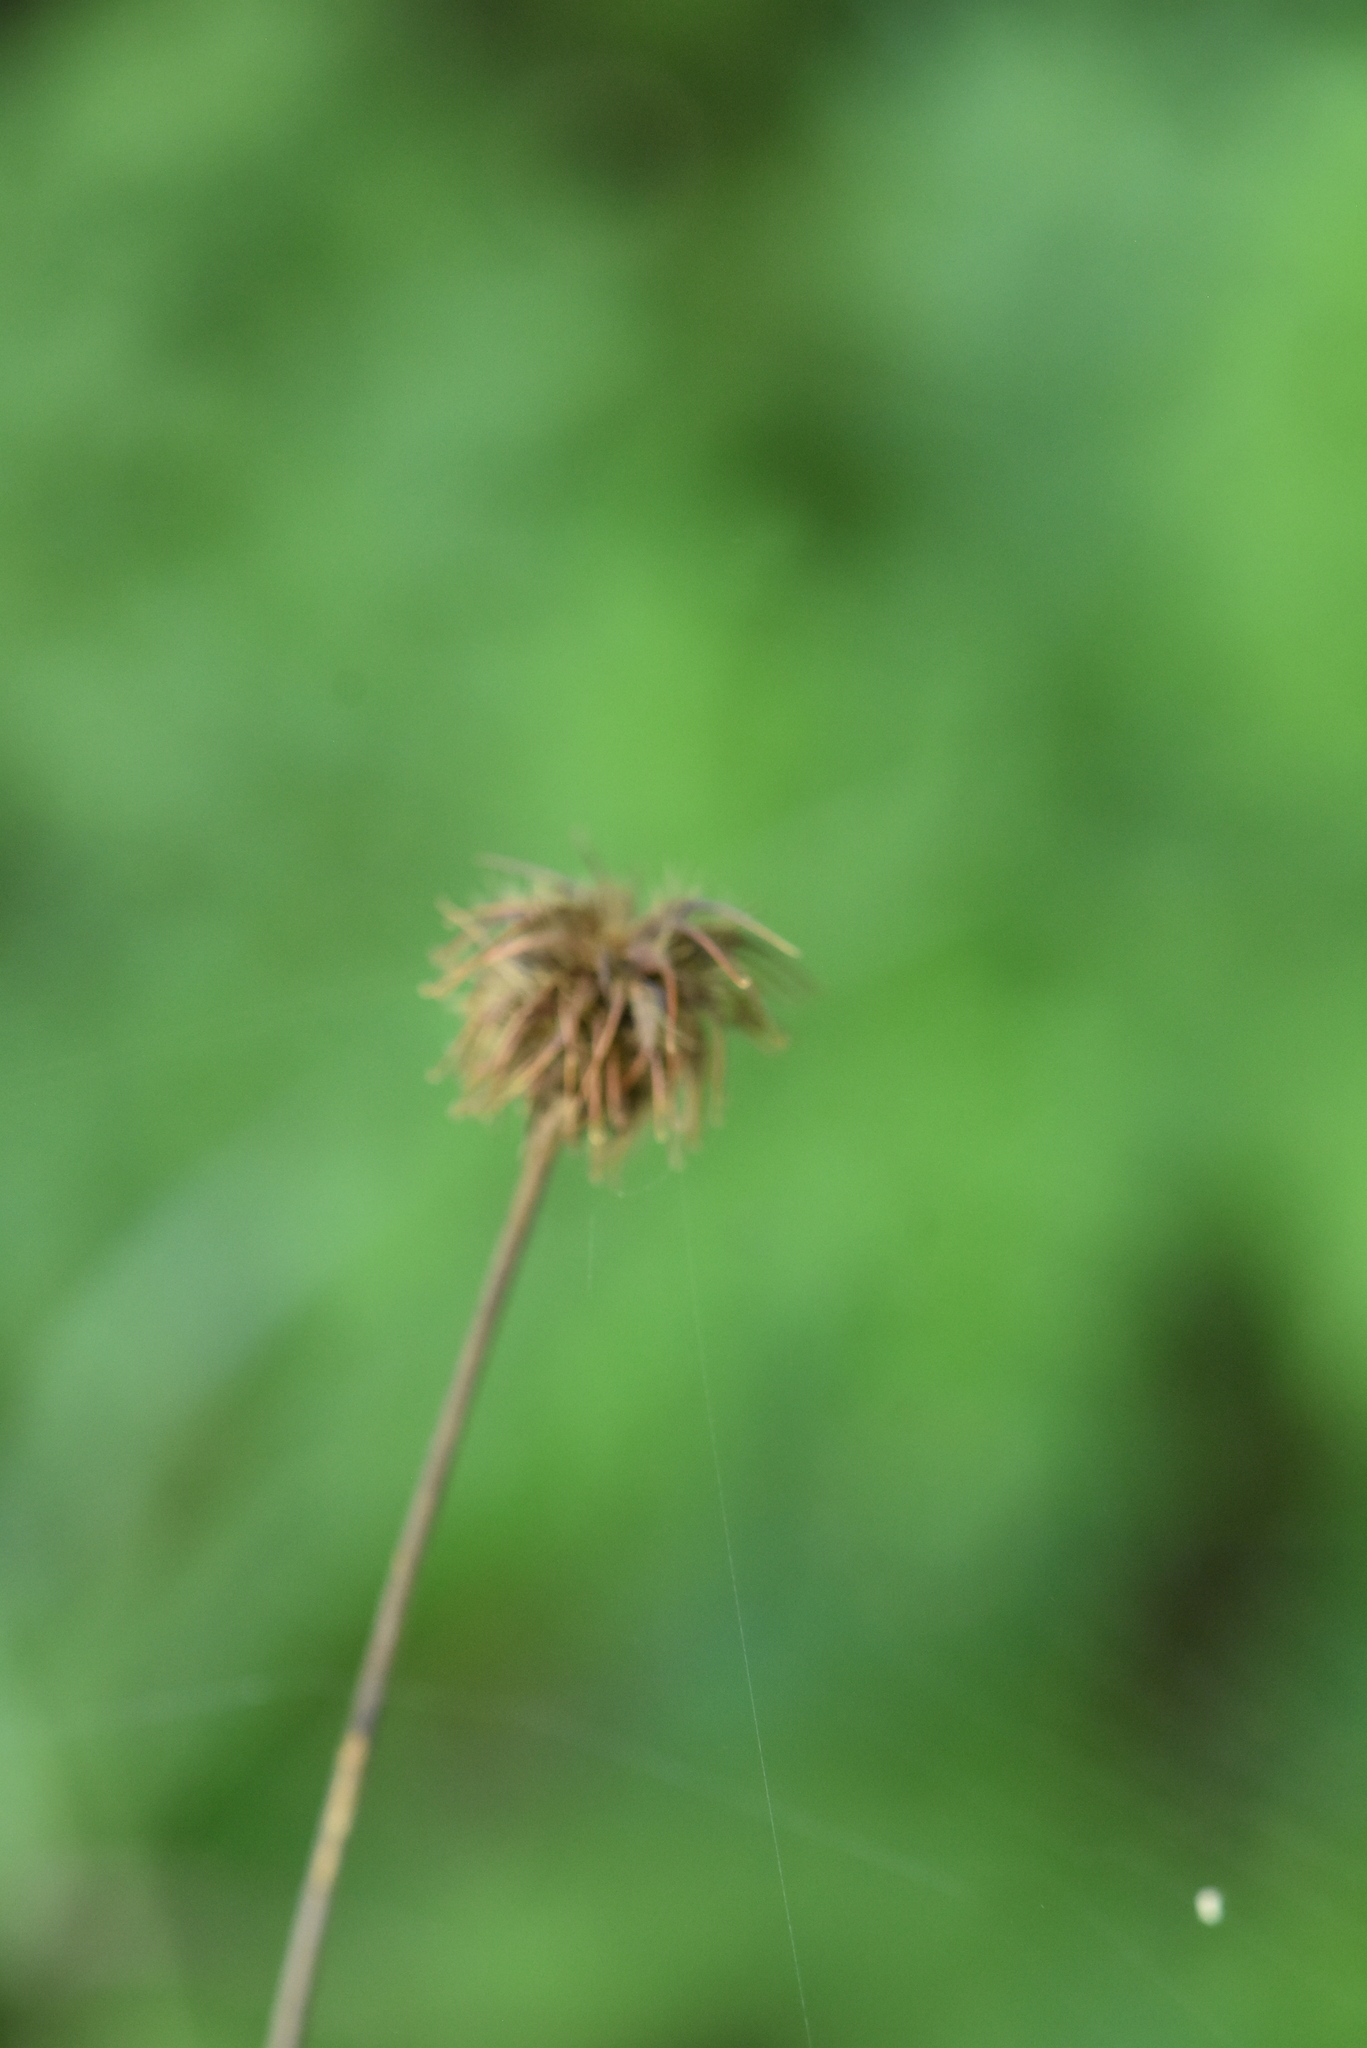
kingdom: Plantae
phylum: Tracheophyta
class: Magnoliopsida
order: Rosales
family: Rosaceae
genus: Geum
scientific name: Geum urbanum
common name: Wood avens
